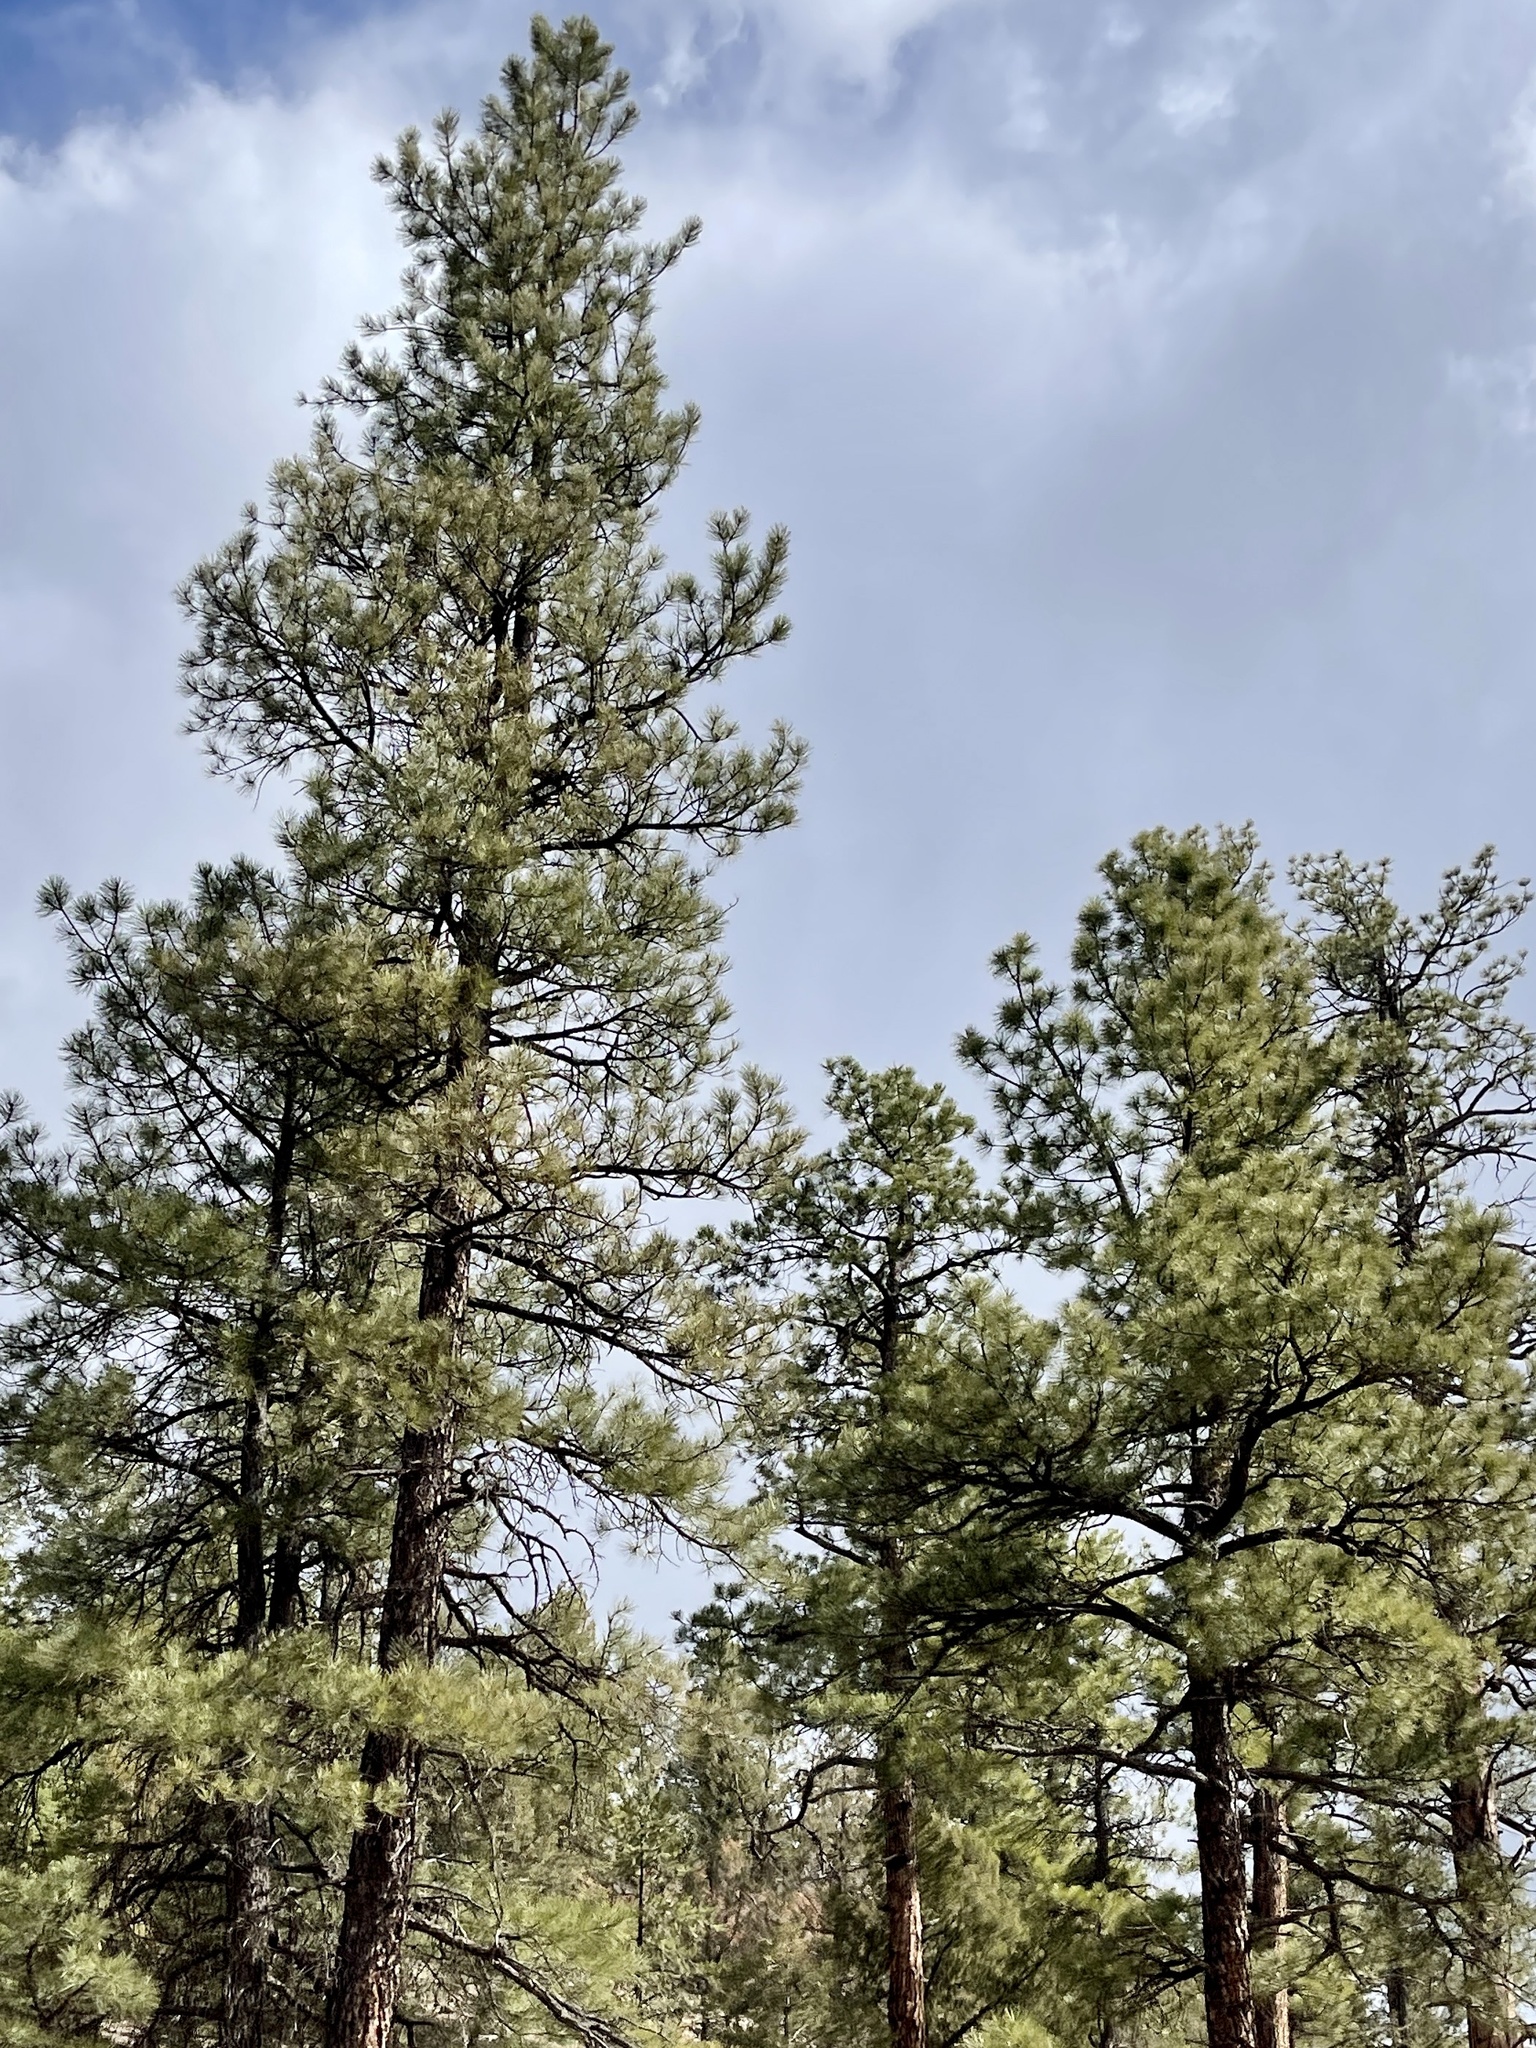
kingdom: Plantae
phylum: Tracheophyta
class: Pinopsida
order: Pinales
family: Pinaceae
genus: Pinus
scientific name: Pinus ponderosa
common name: Western yellow-pine
